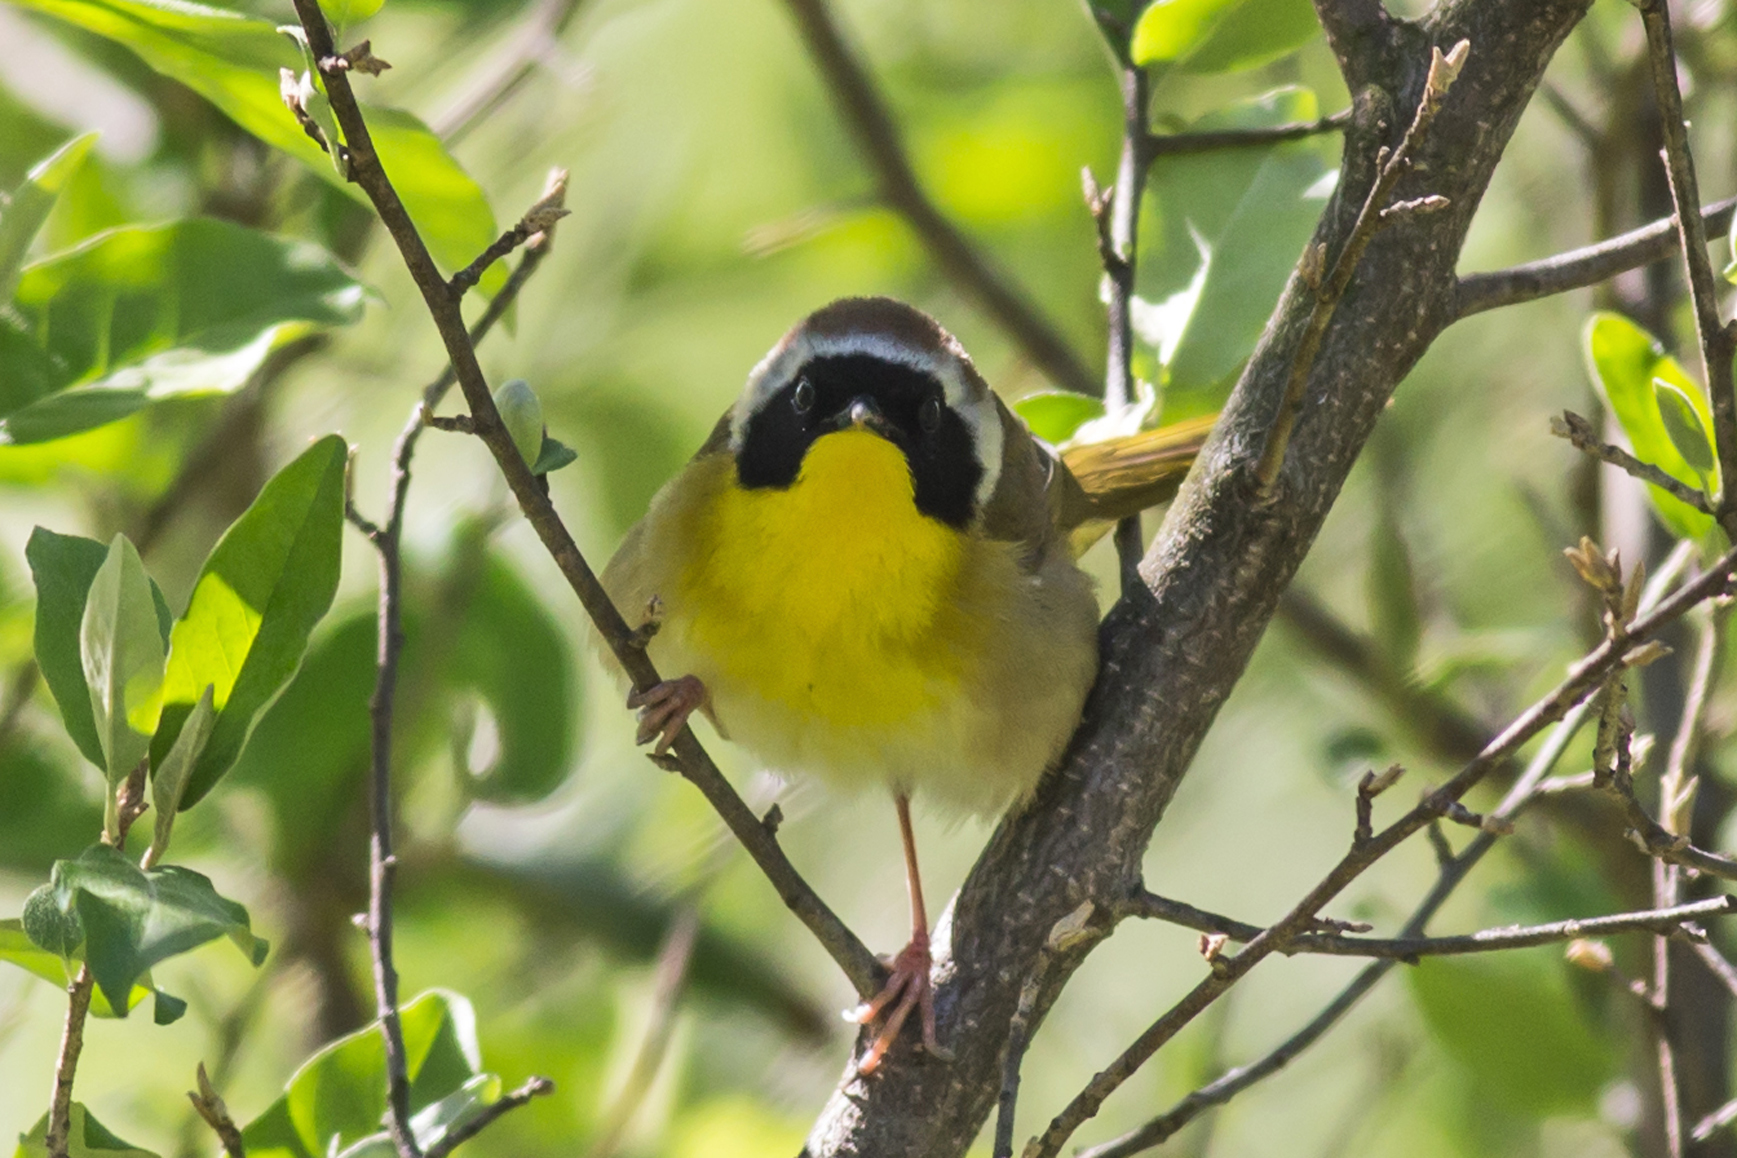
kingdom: Animalia
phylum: Chordata
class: Aves
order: Passeriformes
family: Parulidae
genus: Geothlypis
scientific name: Geothlypis trichas
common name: Common yellowthroat
